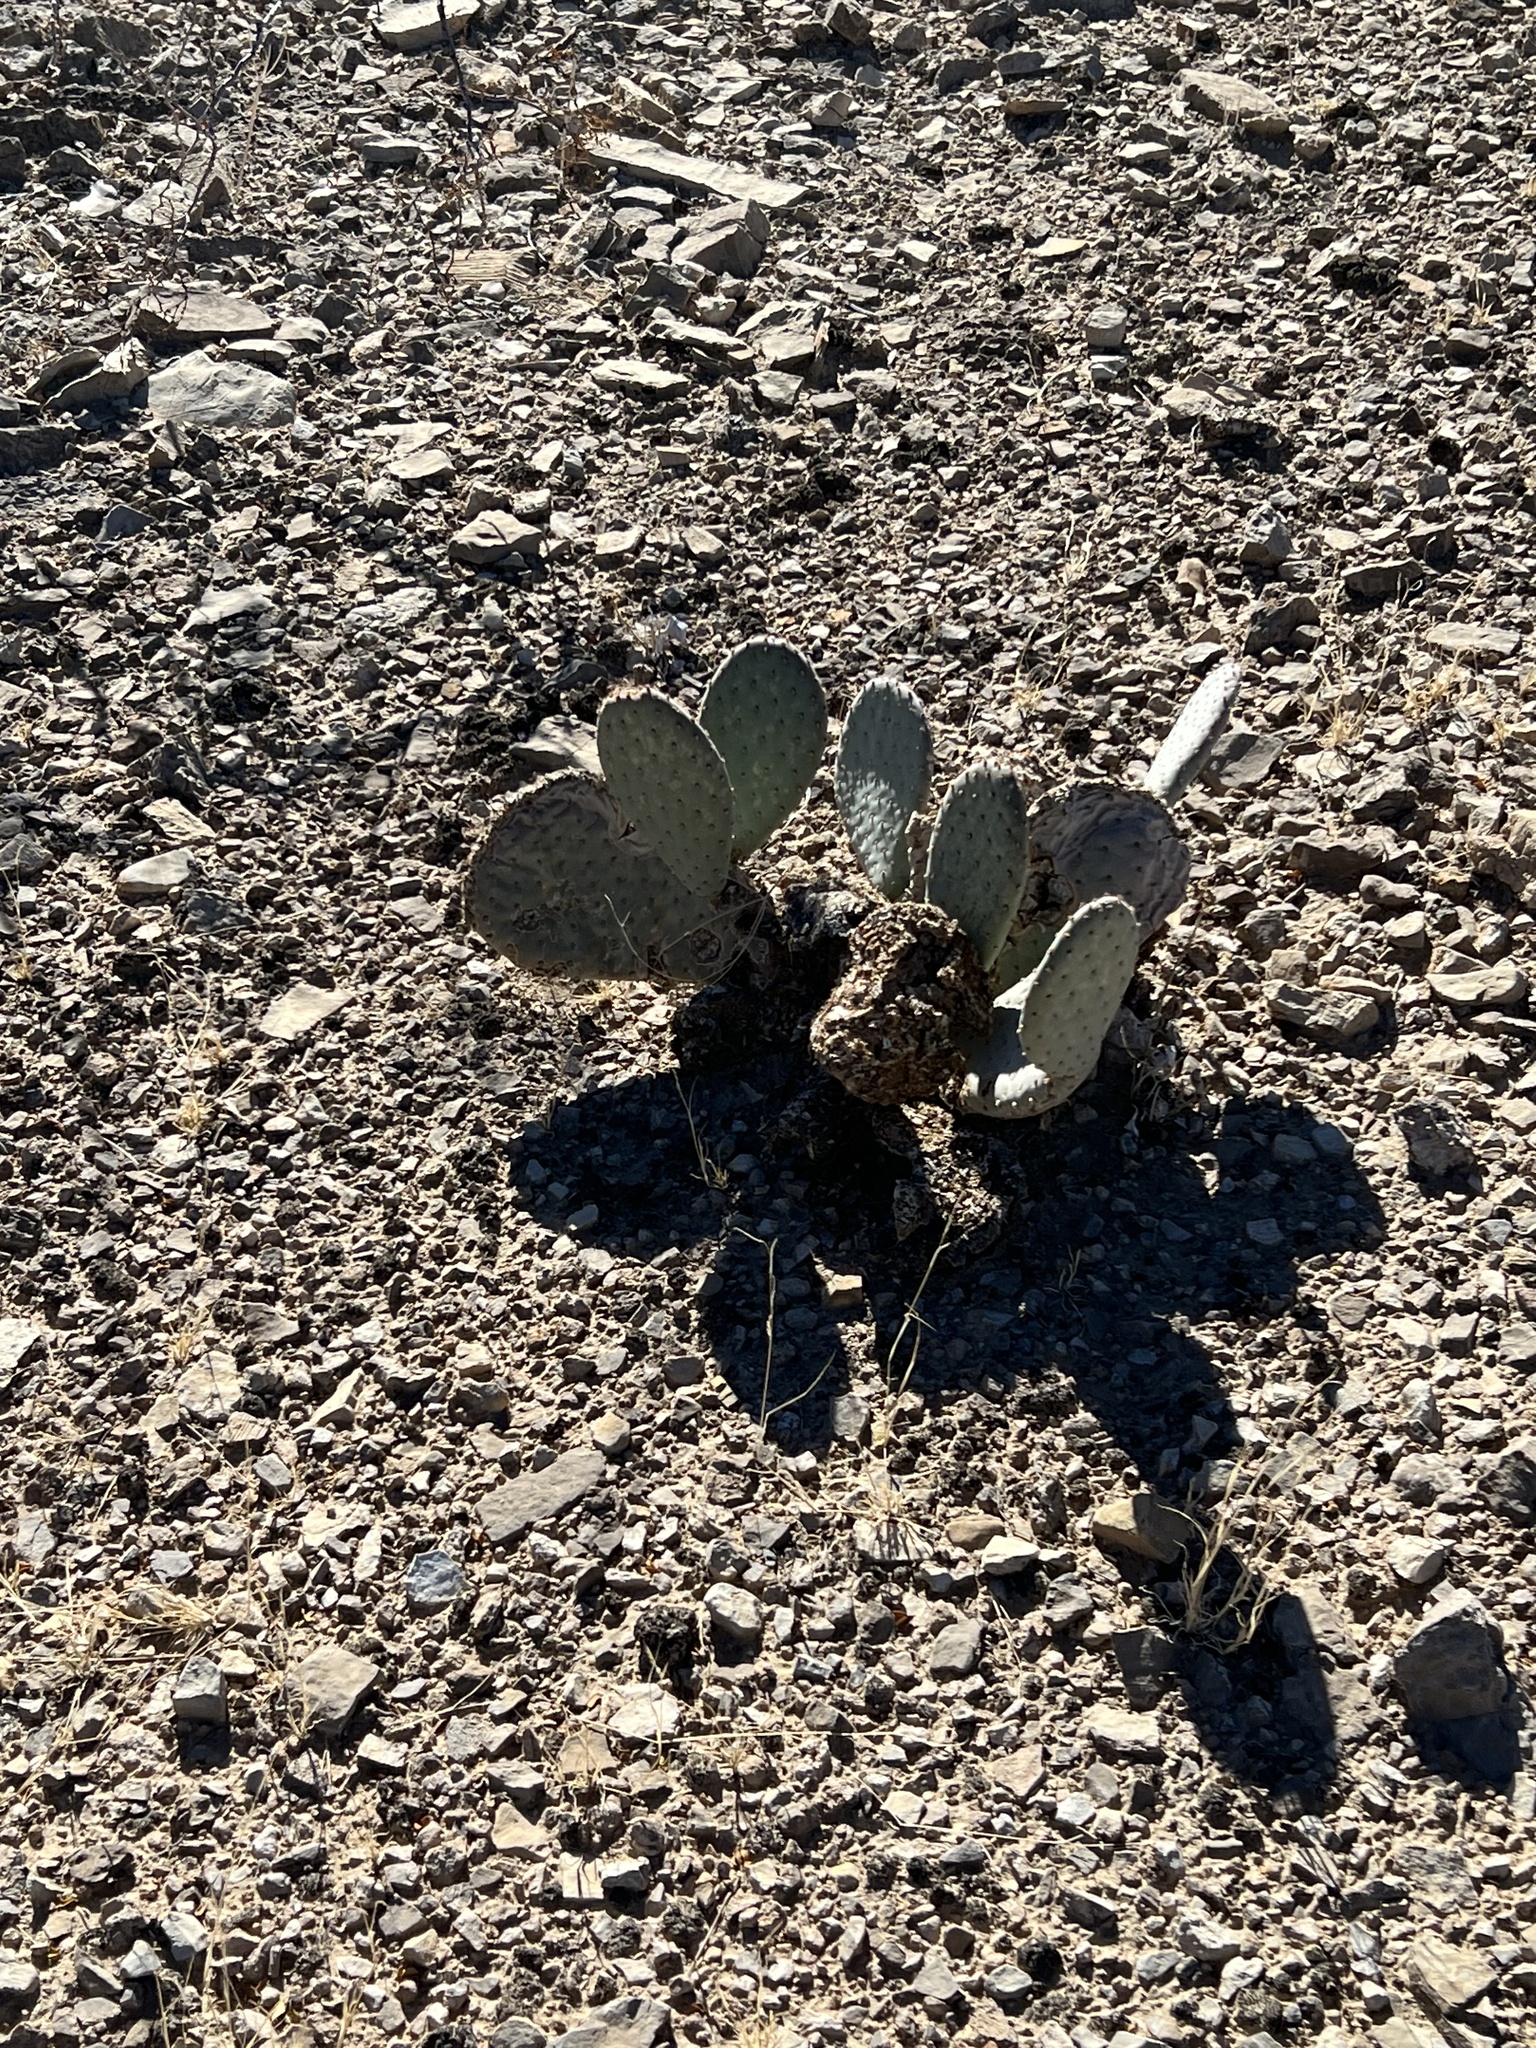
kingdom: Plantae
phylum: Tracheophyta
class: Magnoliopsida
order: Caryophyllales
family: Cactaceae
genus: Opuntia
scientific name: Opuntia basilaris
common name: Beavertail prickly-pear
